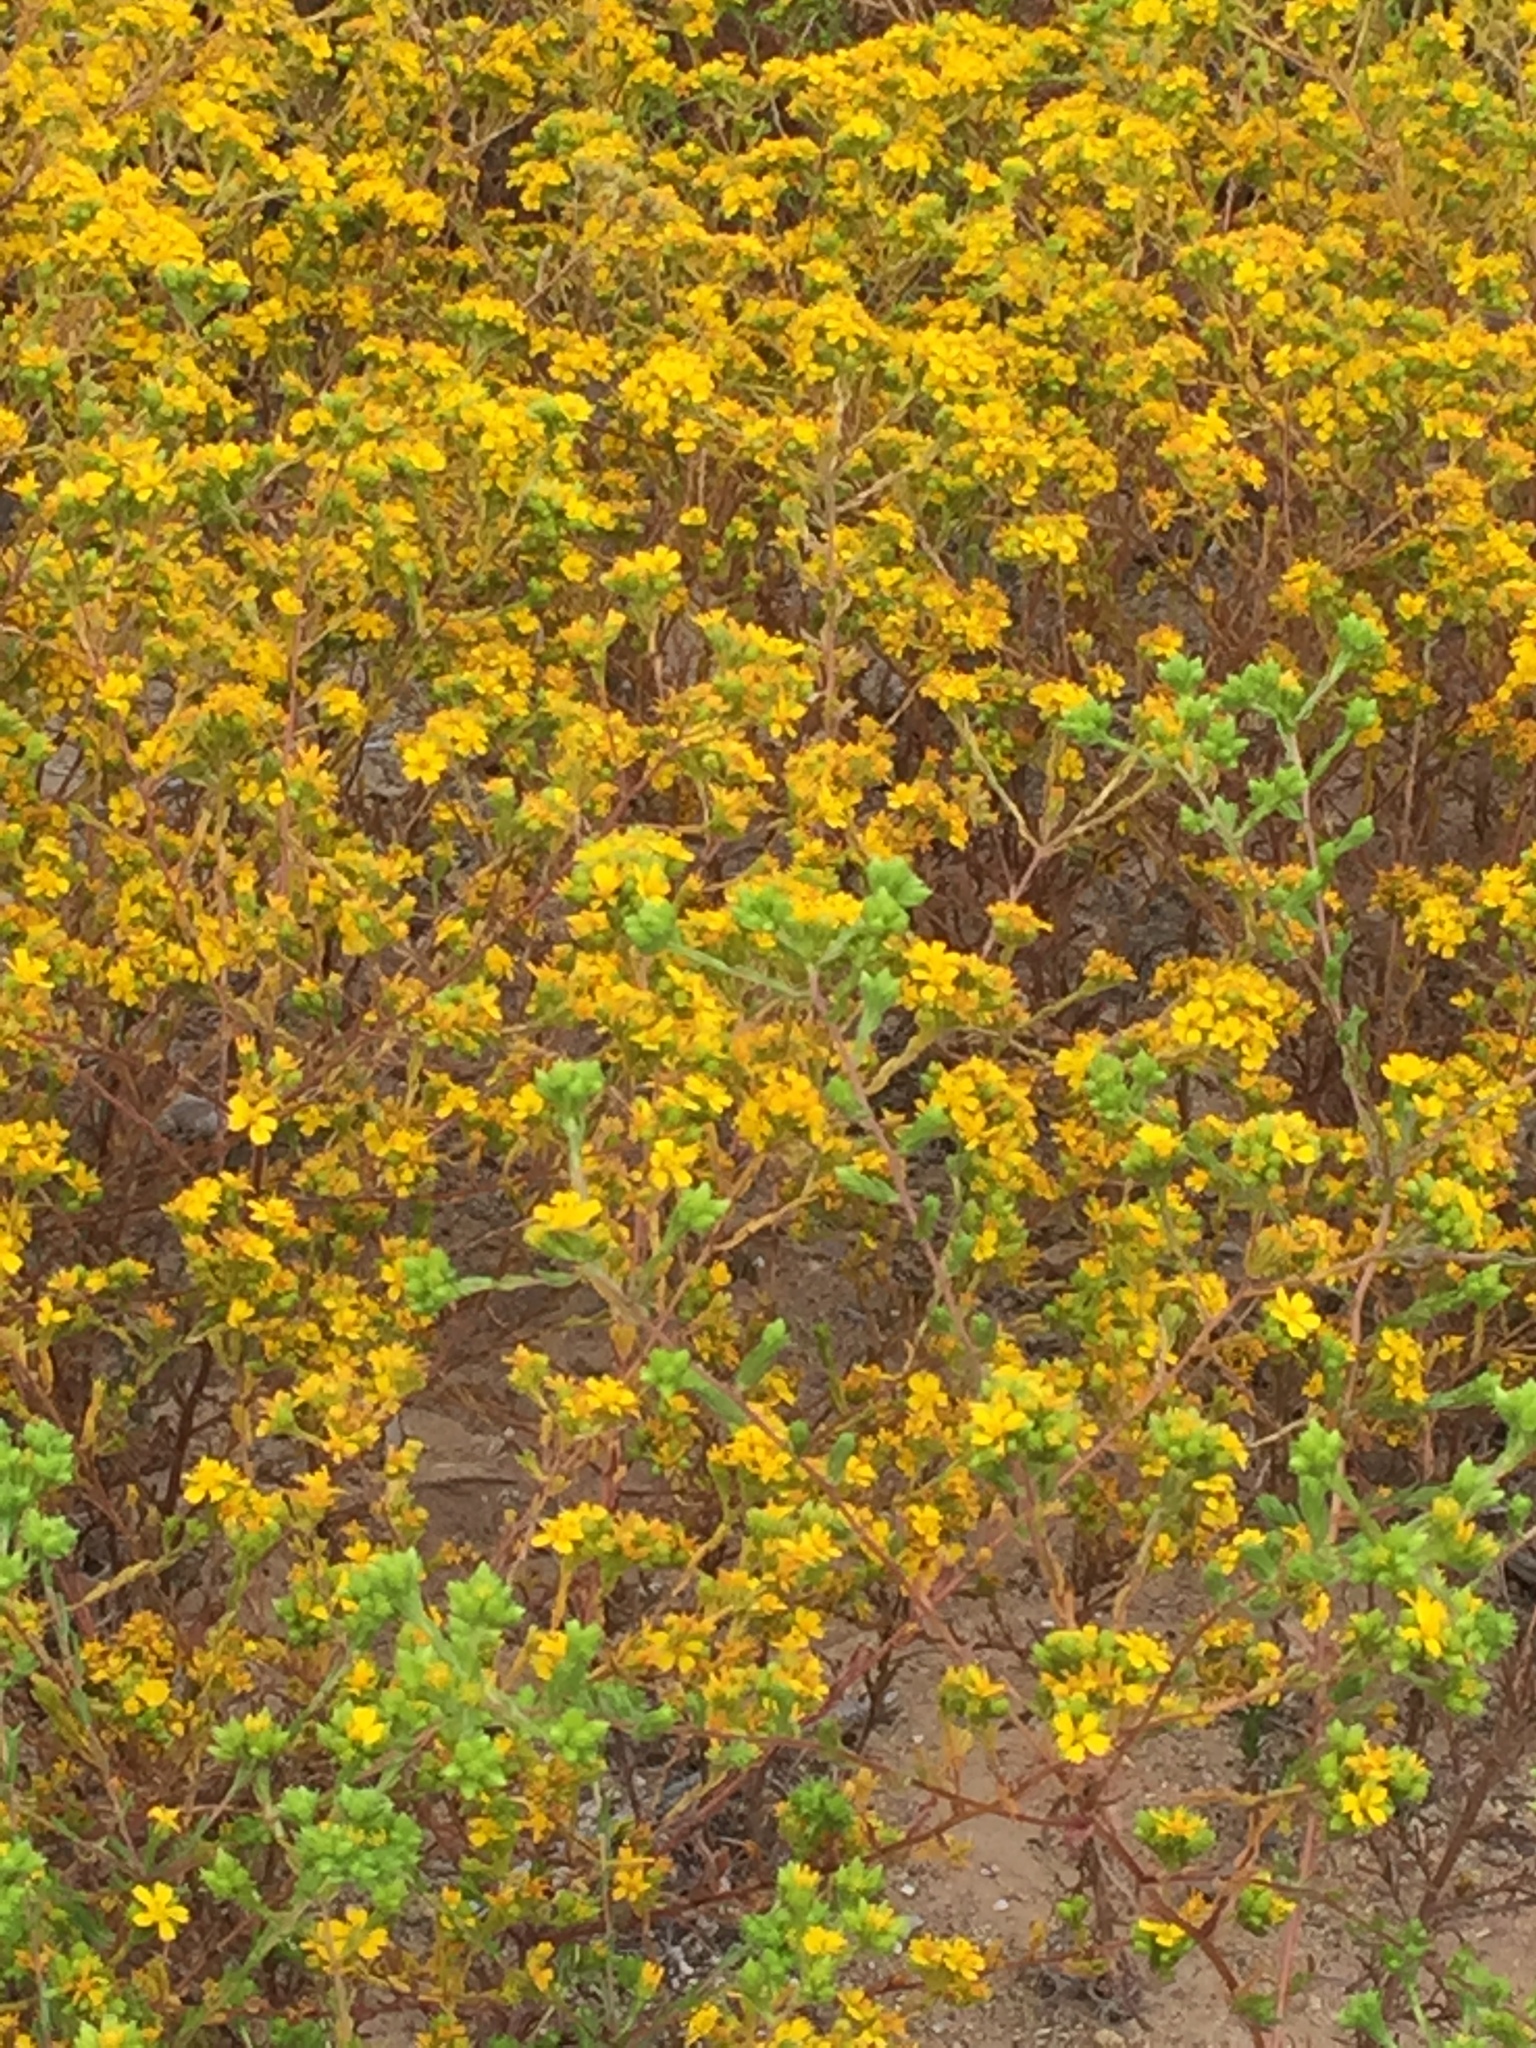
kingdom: Plantae
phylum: Tracheophyta
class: Magnoliopsida
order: Asterales
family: Asteraceae
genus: Deinandra
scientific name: Deinandra fasciculata
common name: Clustered tarweed
